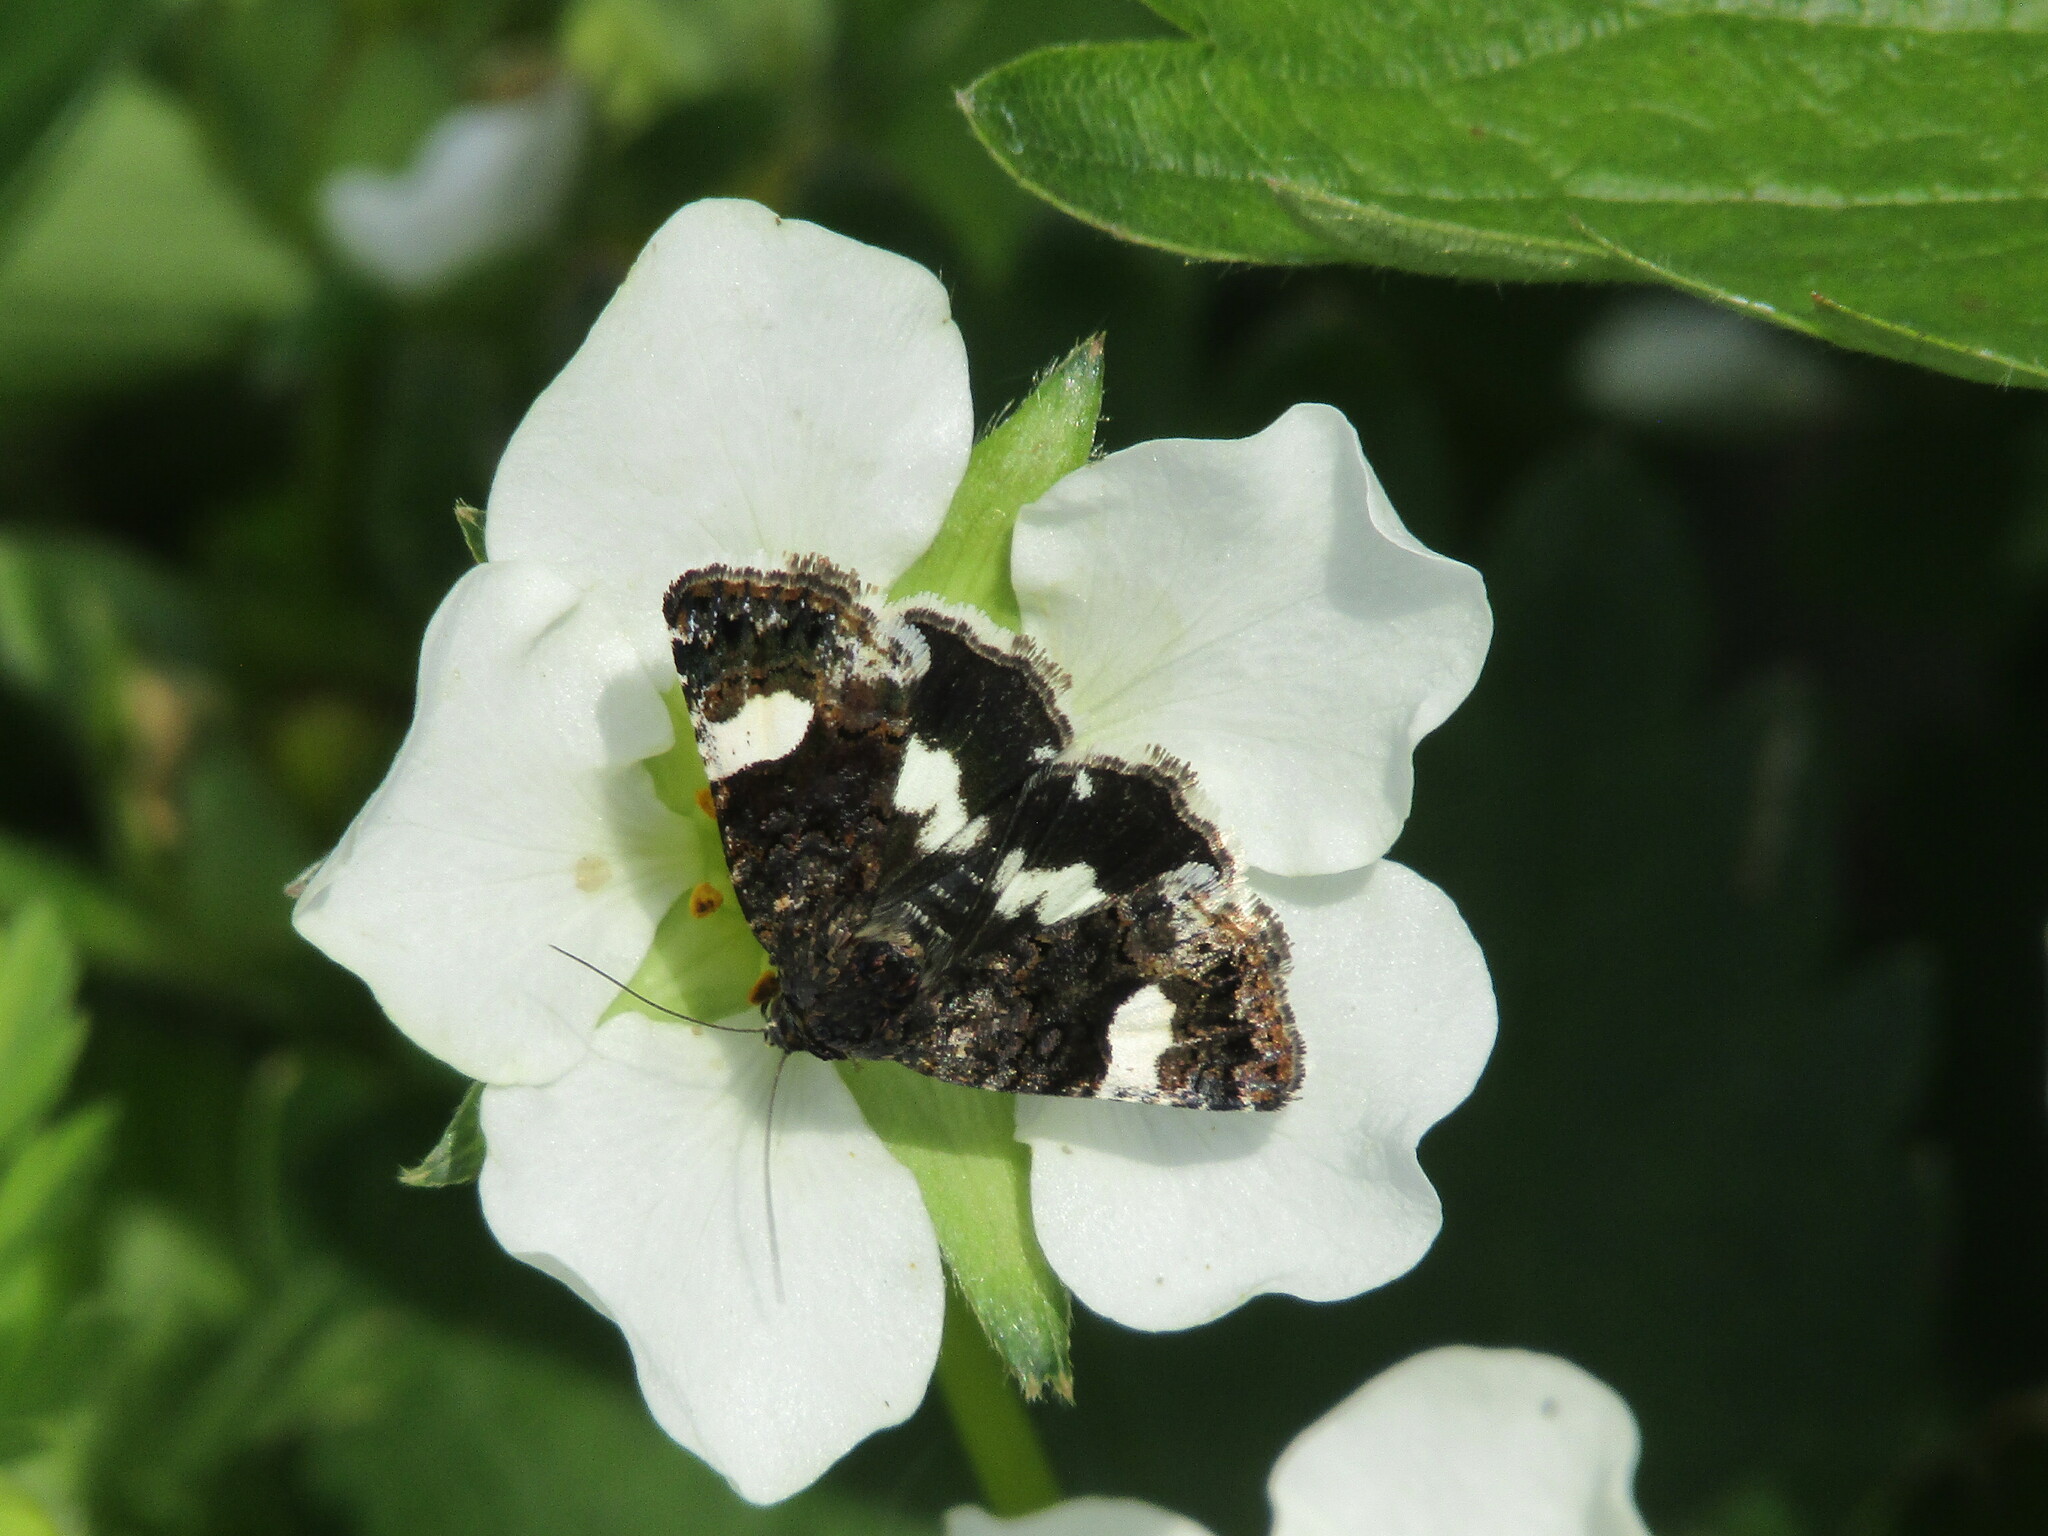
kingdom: Animalia
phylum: Arthropoda
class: Insecta
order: Lepidoptera
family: Erebidae
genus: Tyta
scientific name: Tyta luctuosa
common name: Four-spotted
